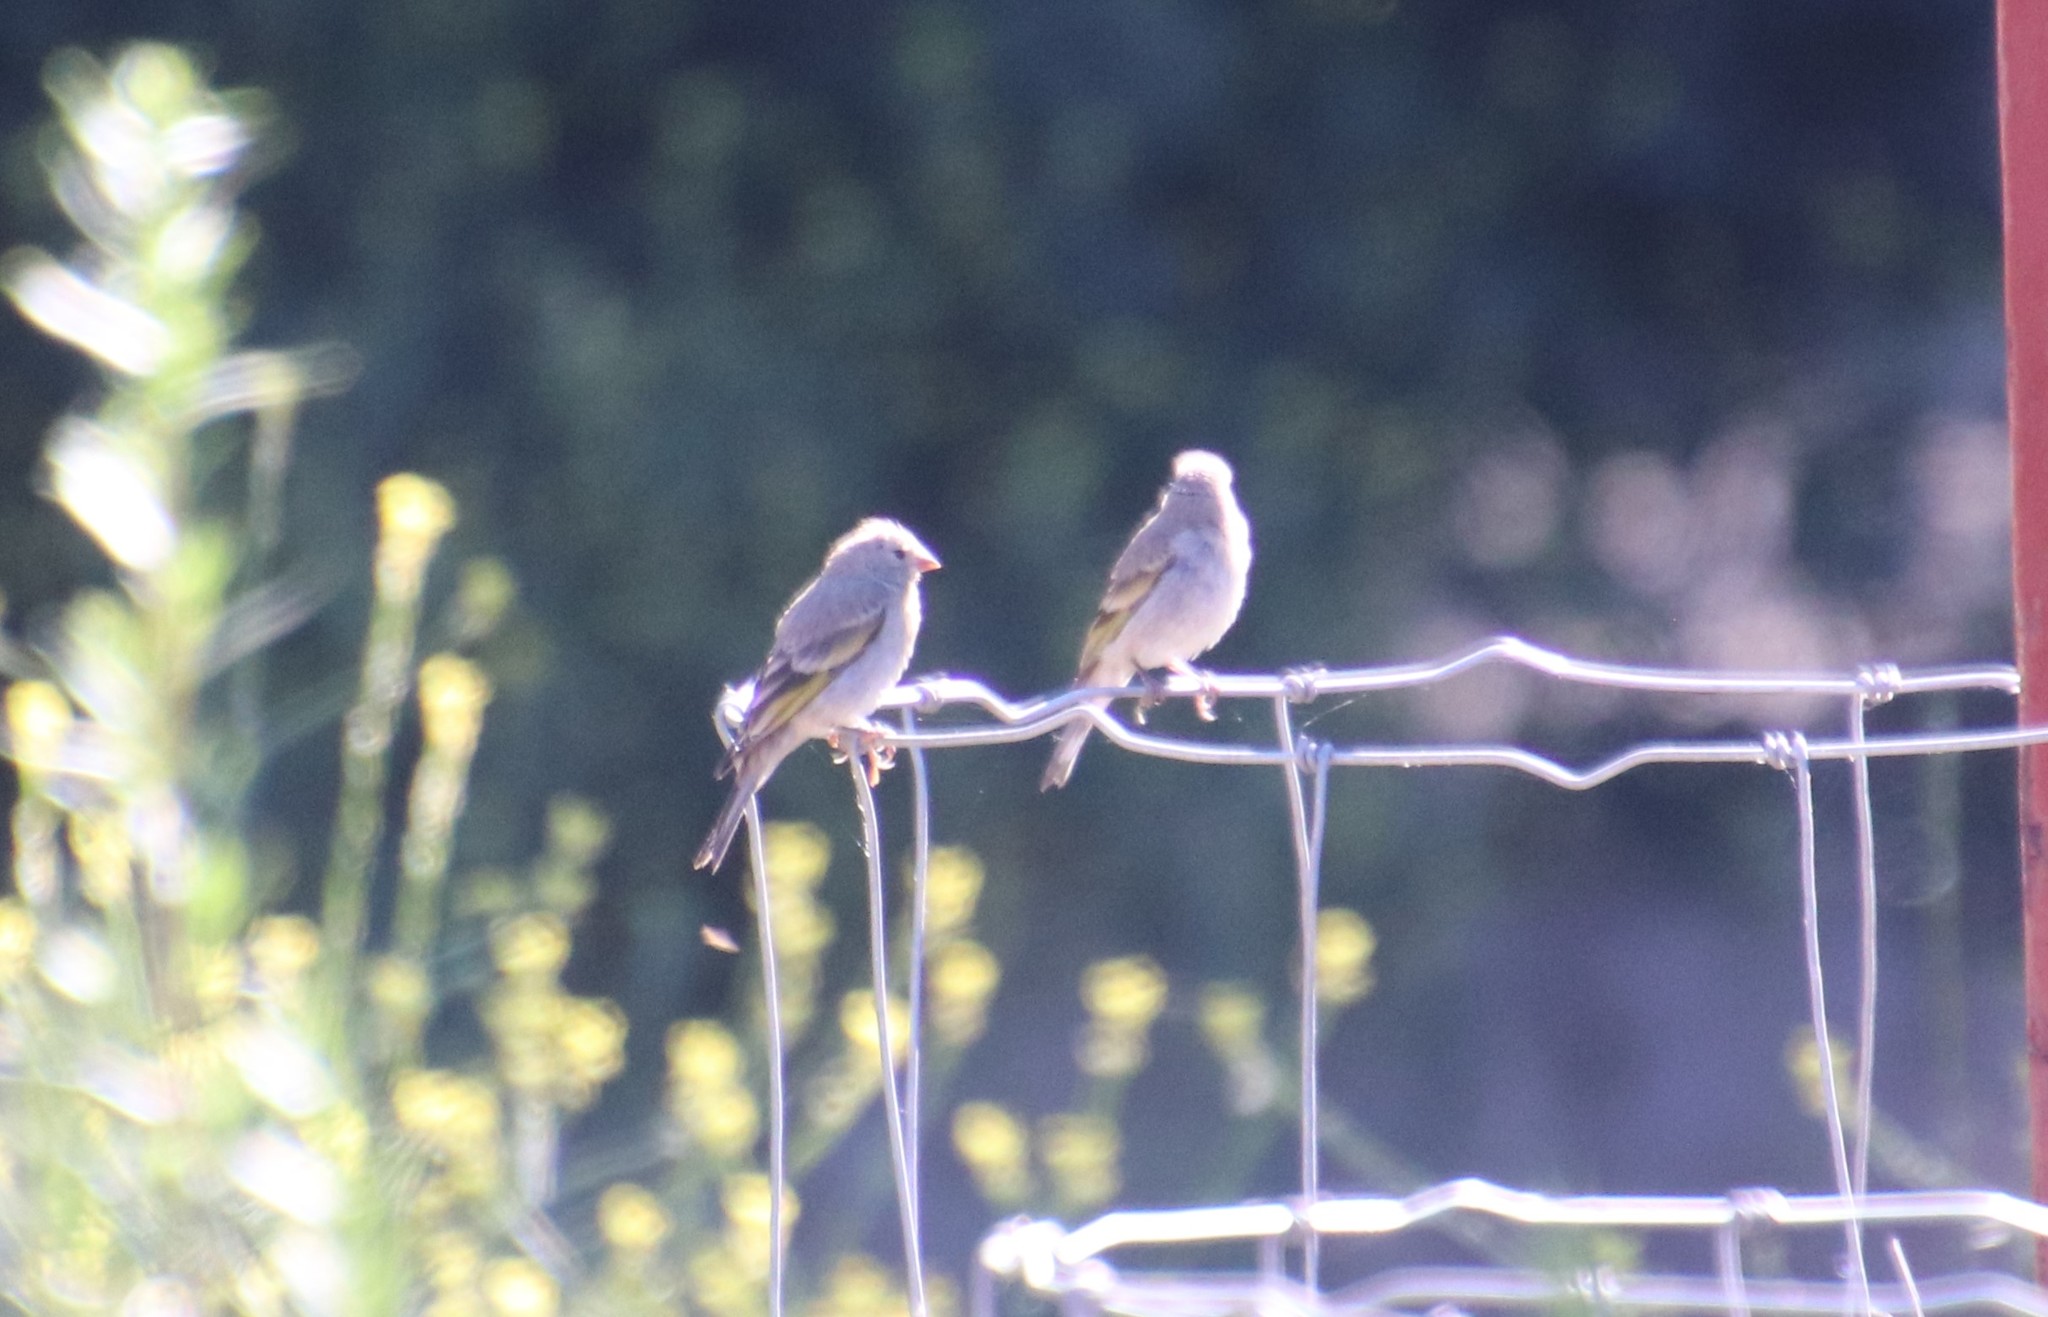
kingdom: Animalia
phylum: Chordata
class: Aves
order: Passeriformes
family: Fringillidae
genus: Spinus
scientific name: Spinus lawrencei
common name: Lawrence's goldfinch
